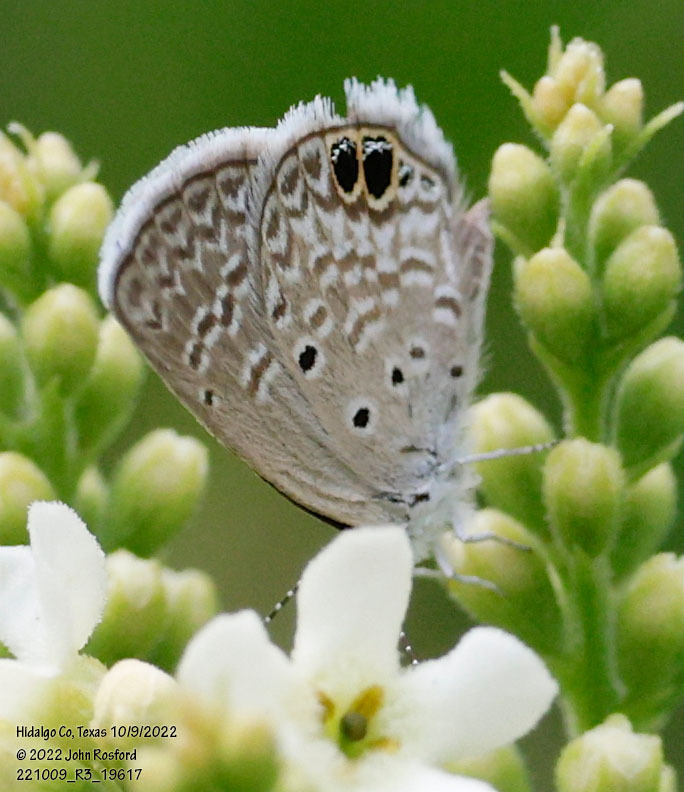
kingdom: Animalia
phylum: Arthropoda
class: Insecta
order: Lepidoptera
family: Lycaenidae
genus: Hemiargus
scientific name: Hemiargus ceraunus
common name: Ceraunus blue
